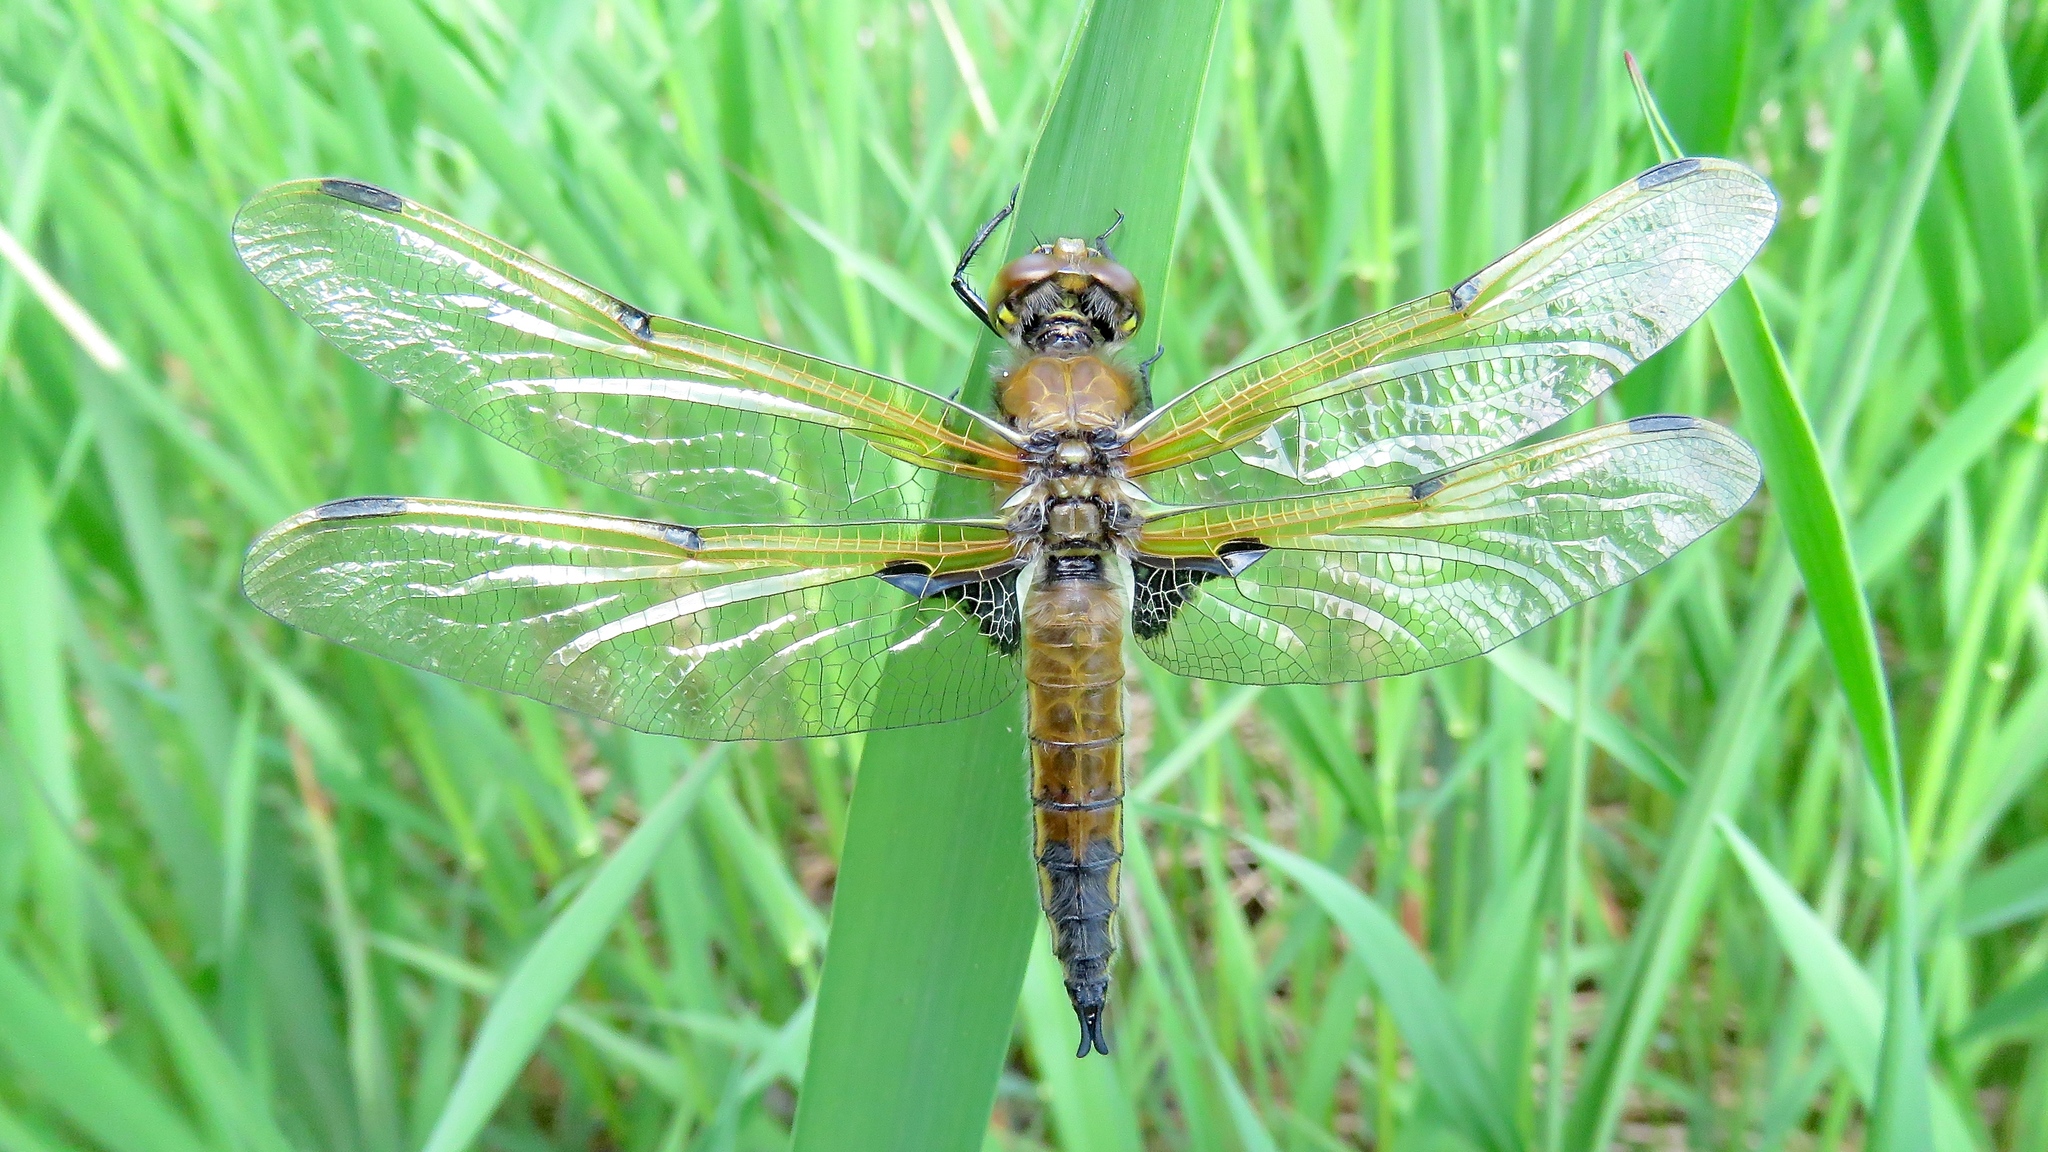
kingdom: Animalia
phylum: Arthropoda
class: Insecta
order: Odonata
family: Libellulidae
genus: Libellula
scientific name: Libellula quadrimaculata
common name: Four-spotted chaser
